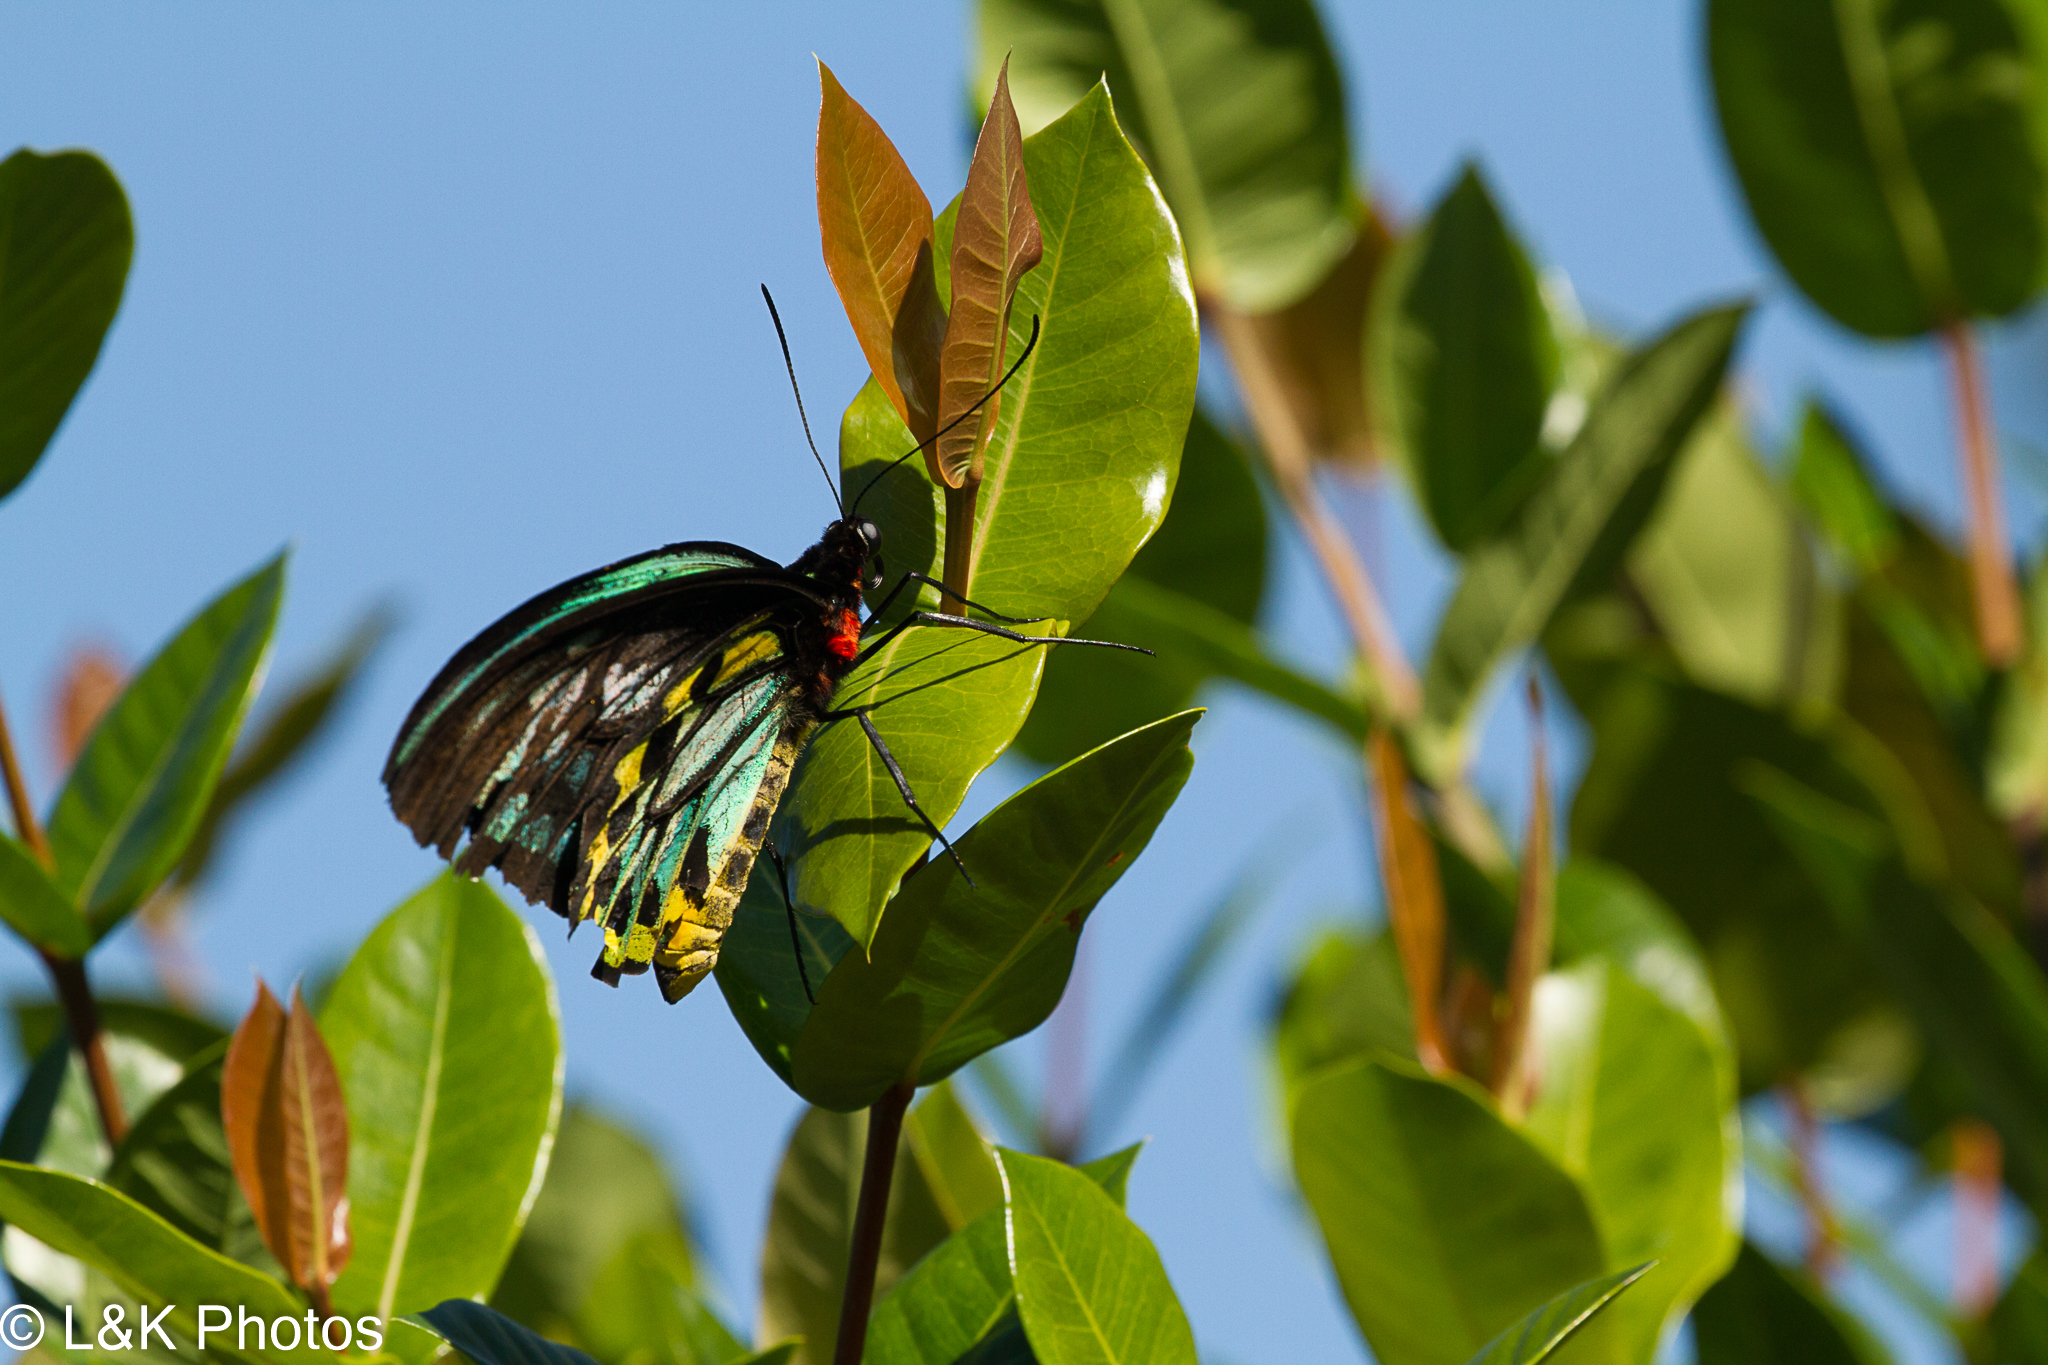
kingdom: Animalia
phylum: Arthropoda
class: Insecta
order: Lepidoptera
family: Papilionidae
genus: Ornithoptera
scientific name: Ornithoptera euphorion
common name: Cairns birdwing
